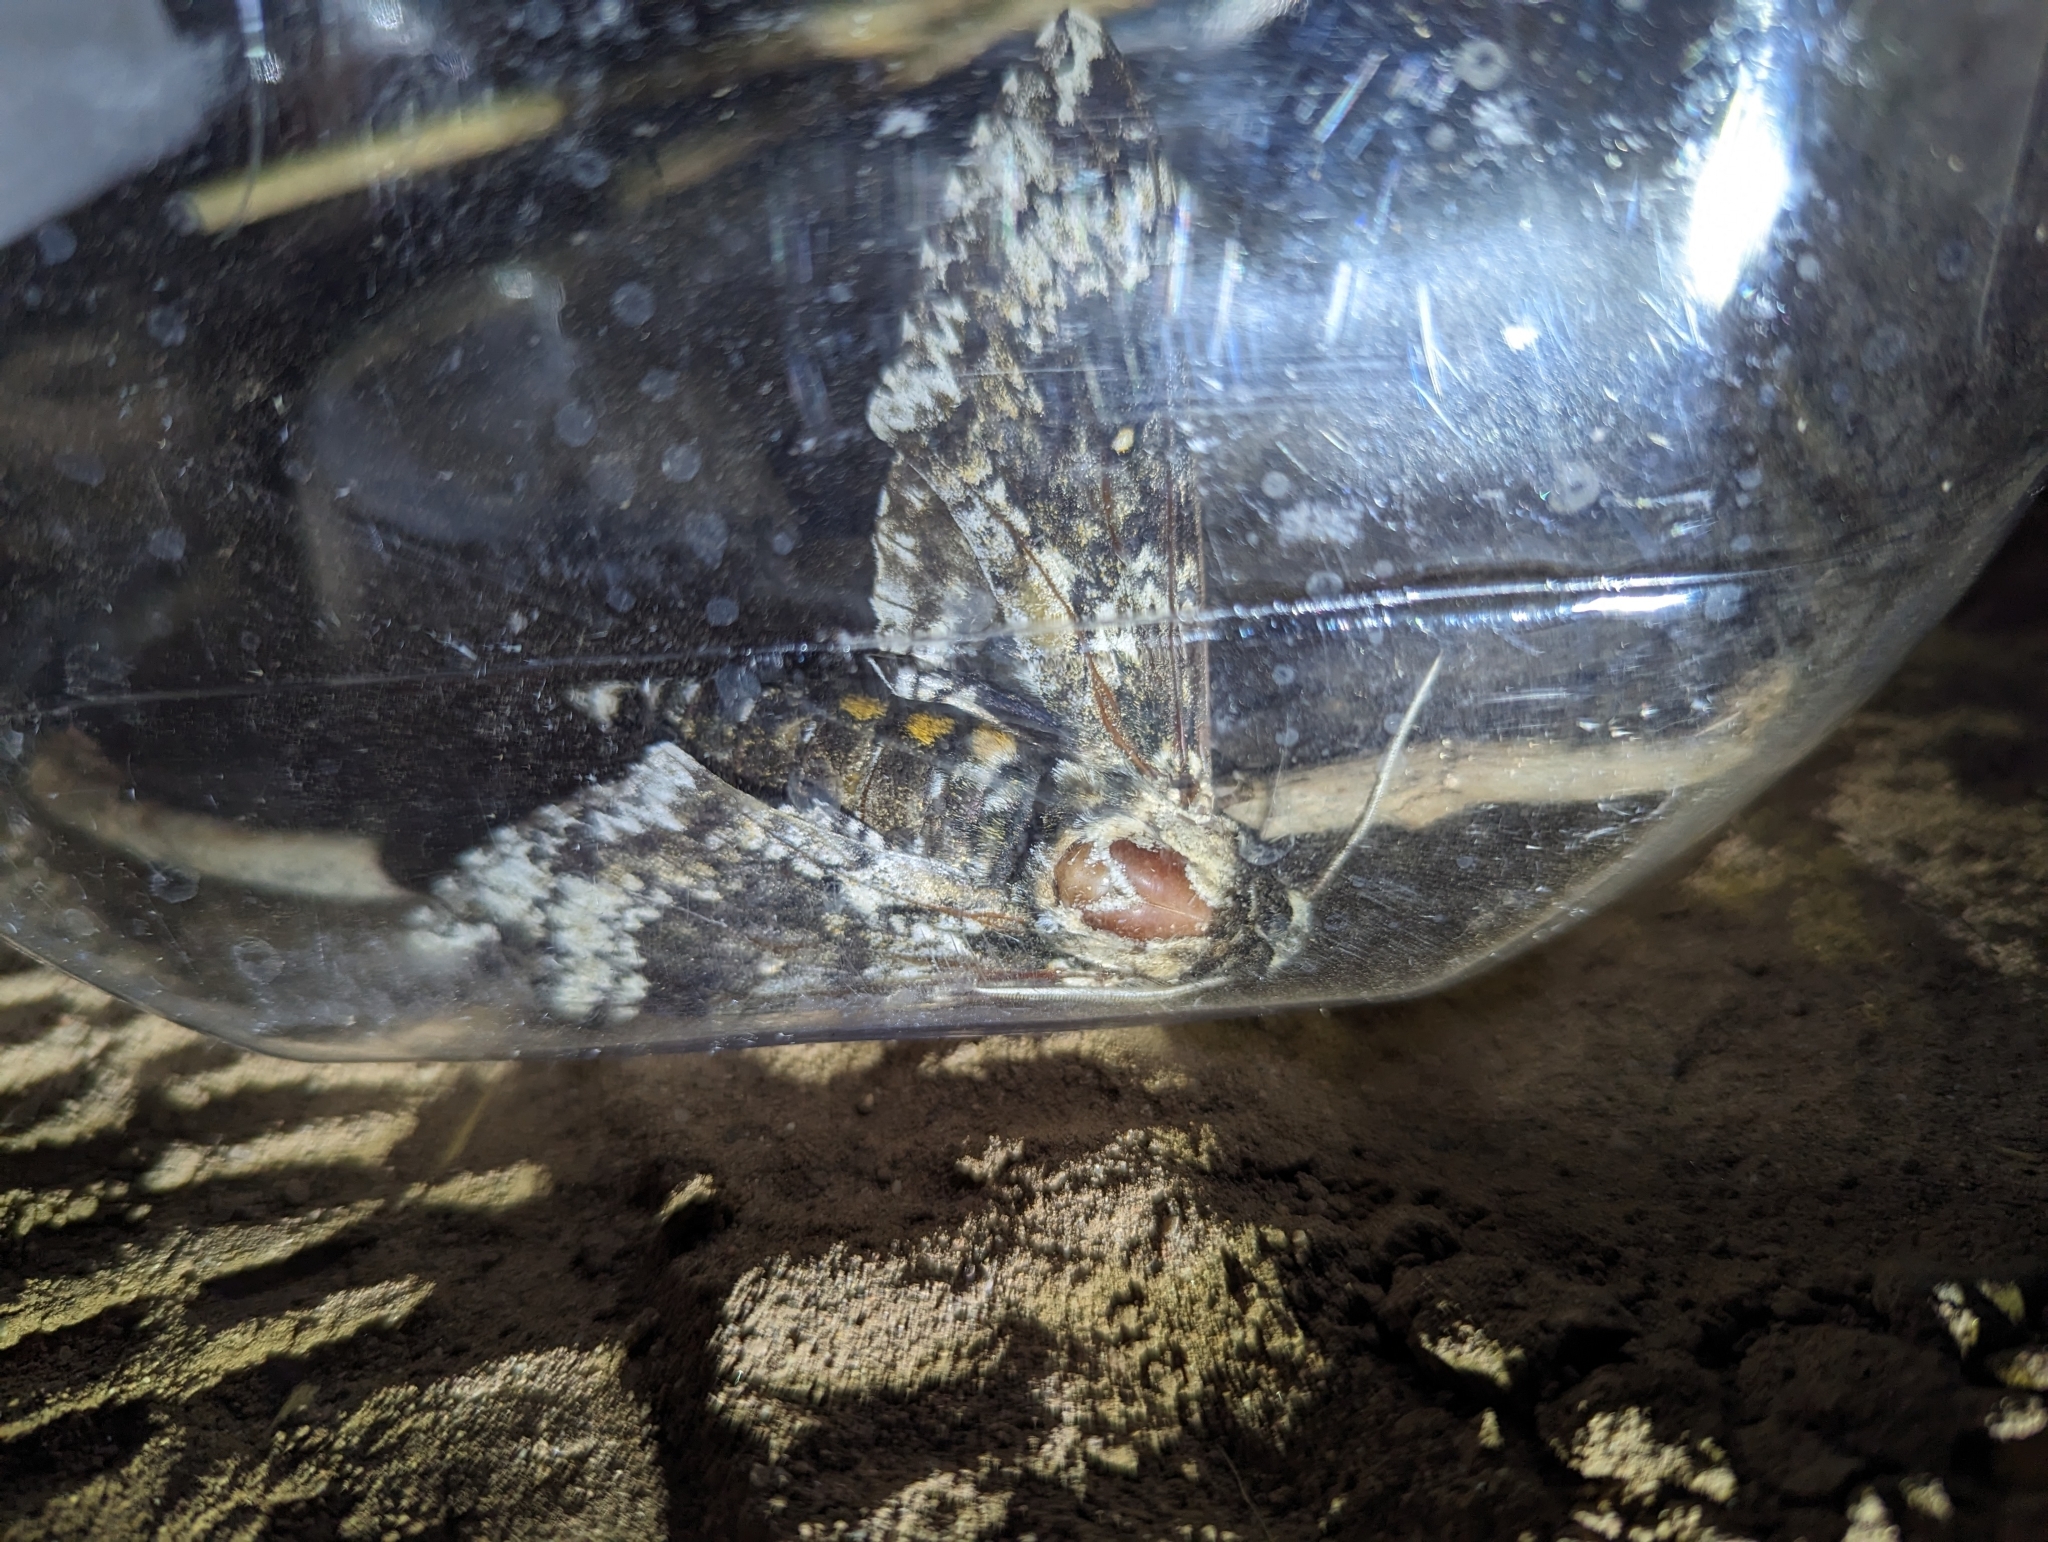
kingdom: Animalia
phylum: Arthropoda
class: Insecta
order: Lepidoptera
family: Sphingidae
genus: Manduca
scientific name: Manduca rustica
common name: Rustic sphinx
